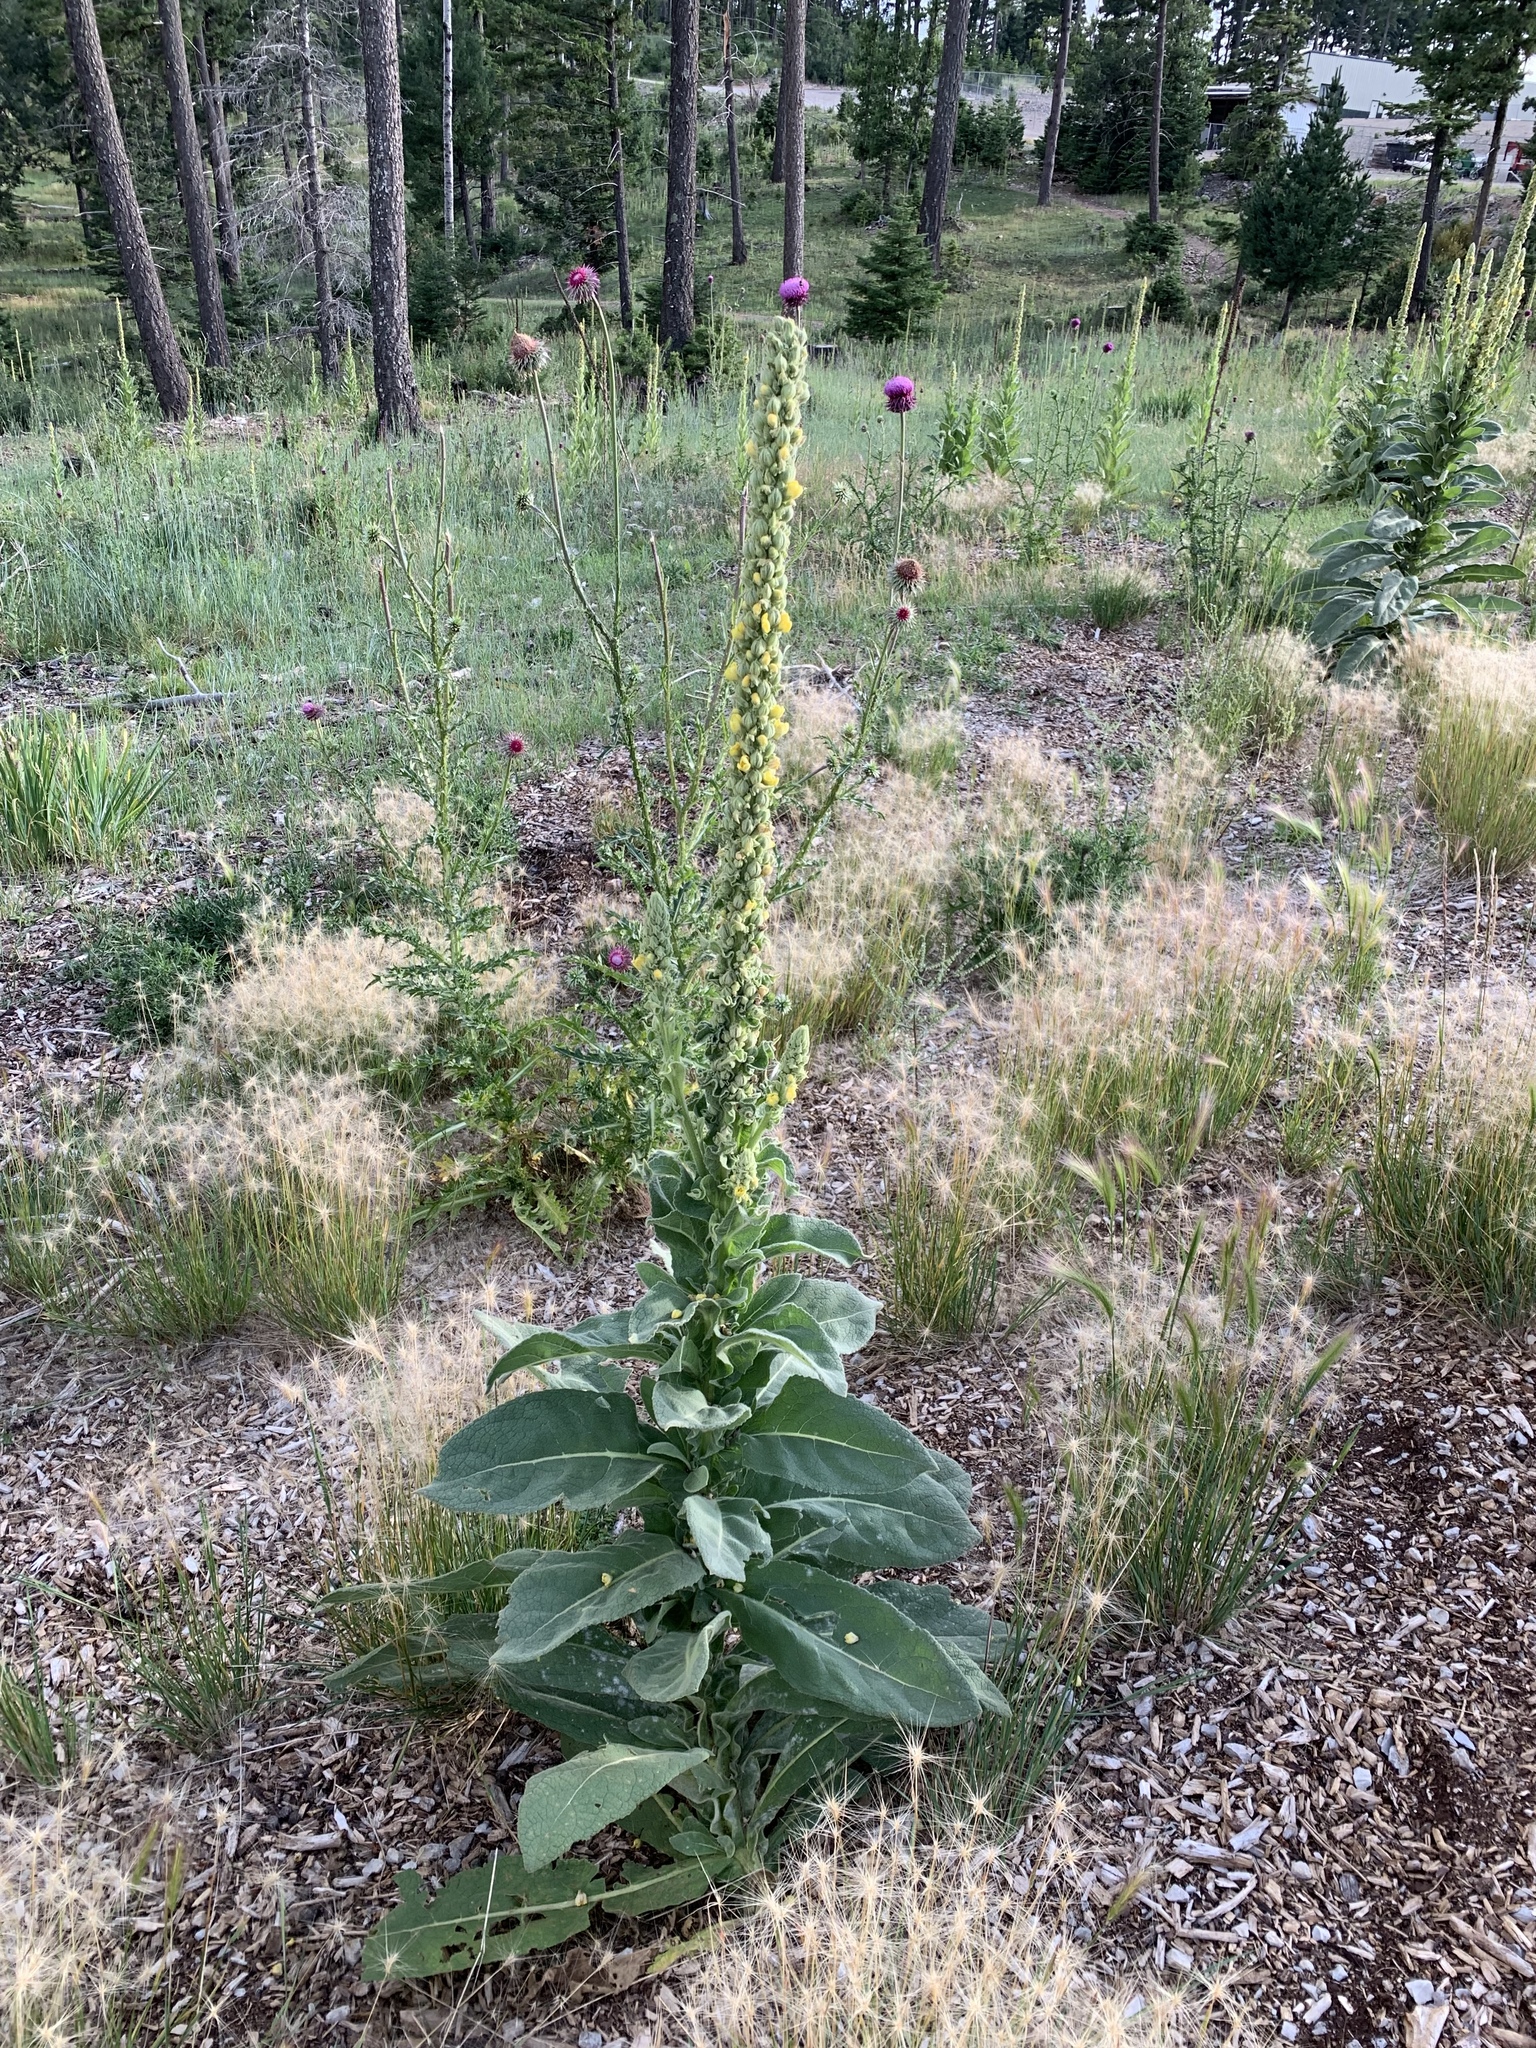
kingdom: Plantae
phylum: Tracheophyta
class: Magnoliopsida
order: Lamiales
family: Scrophulariaceae
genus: Verbascum
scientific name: Verbascum thapsus
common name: Common mullein
